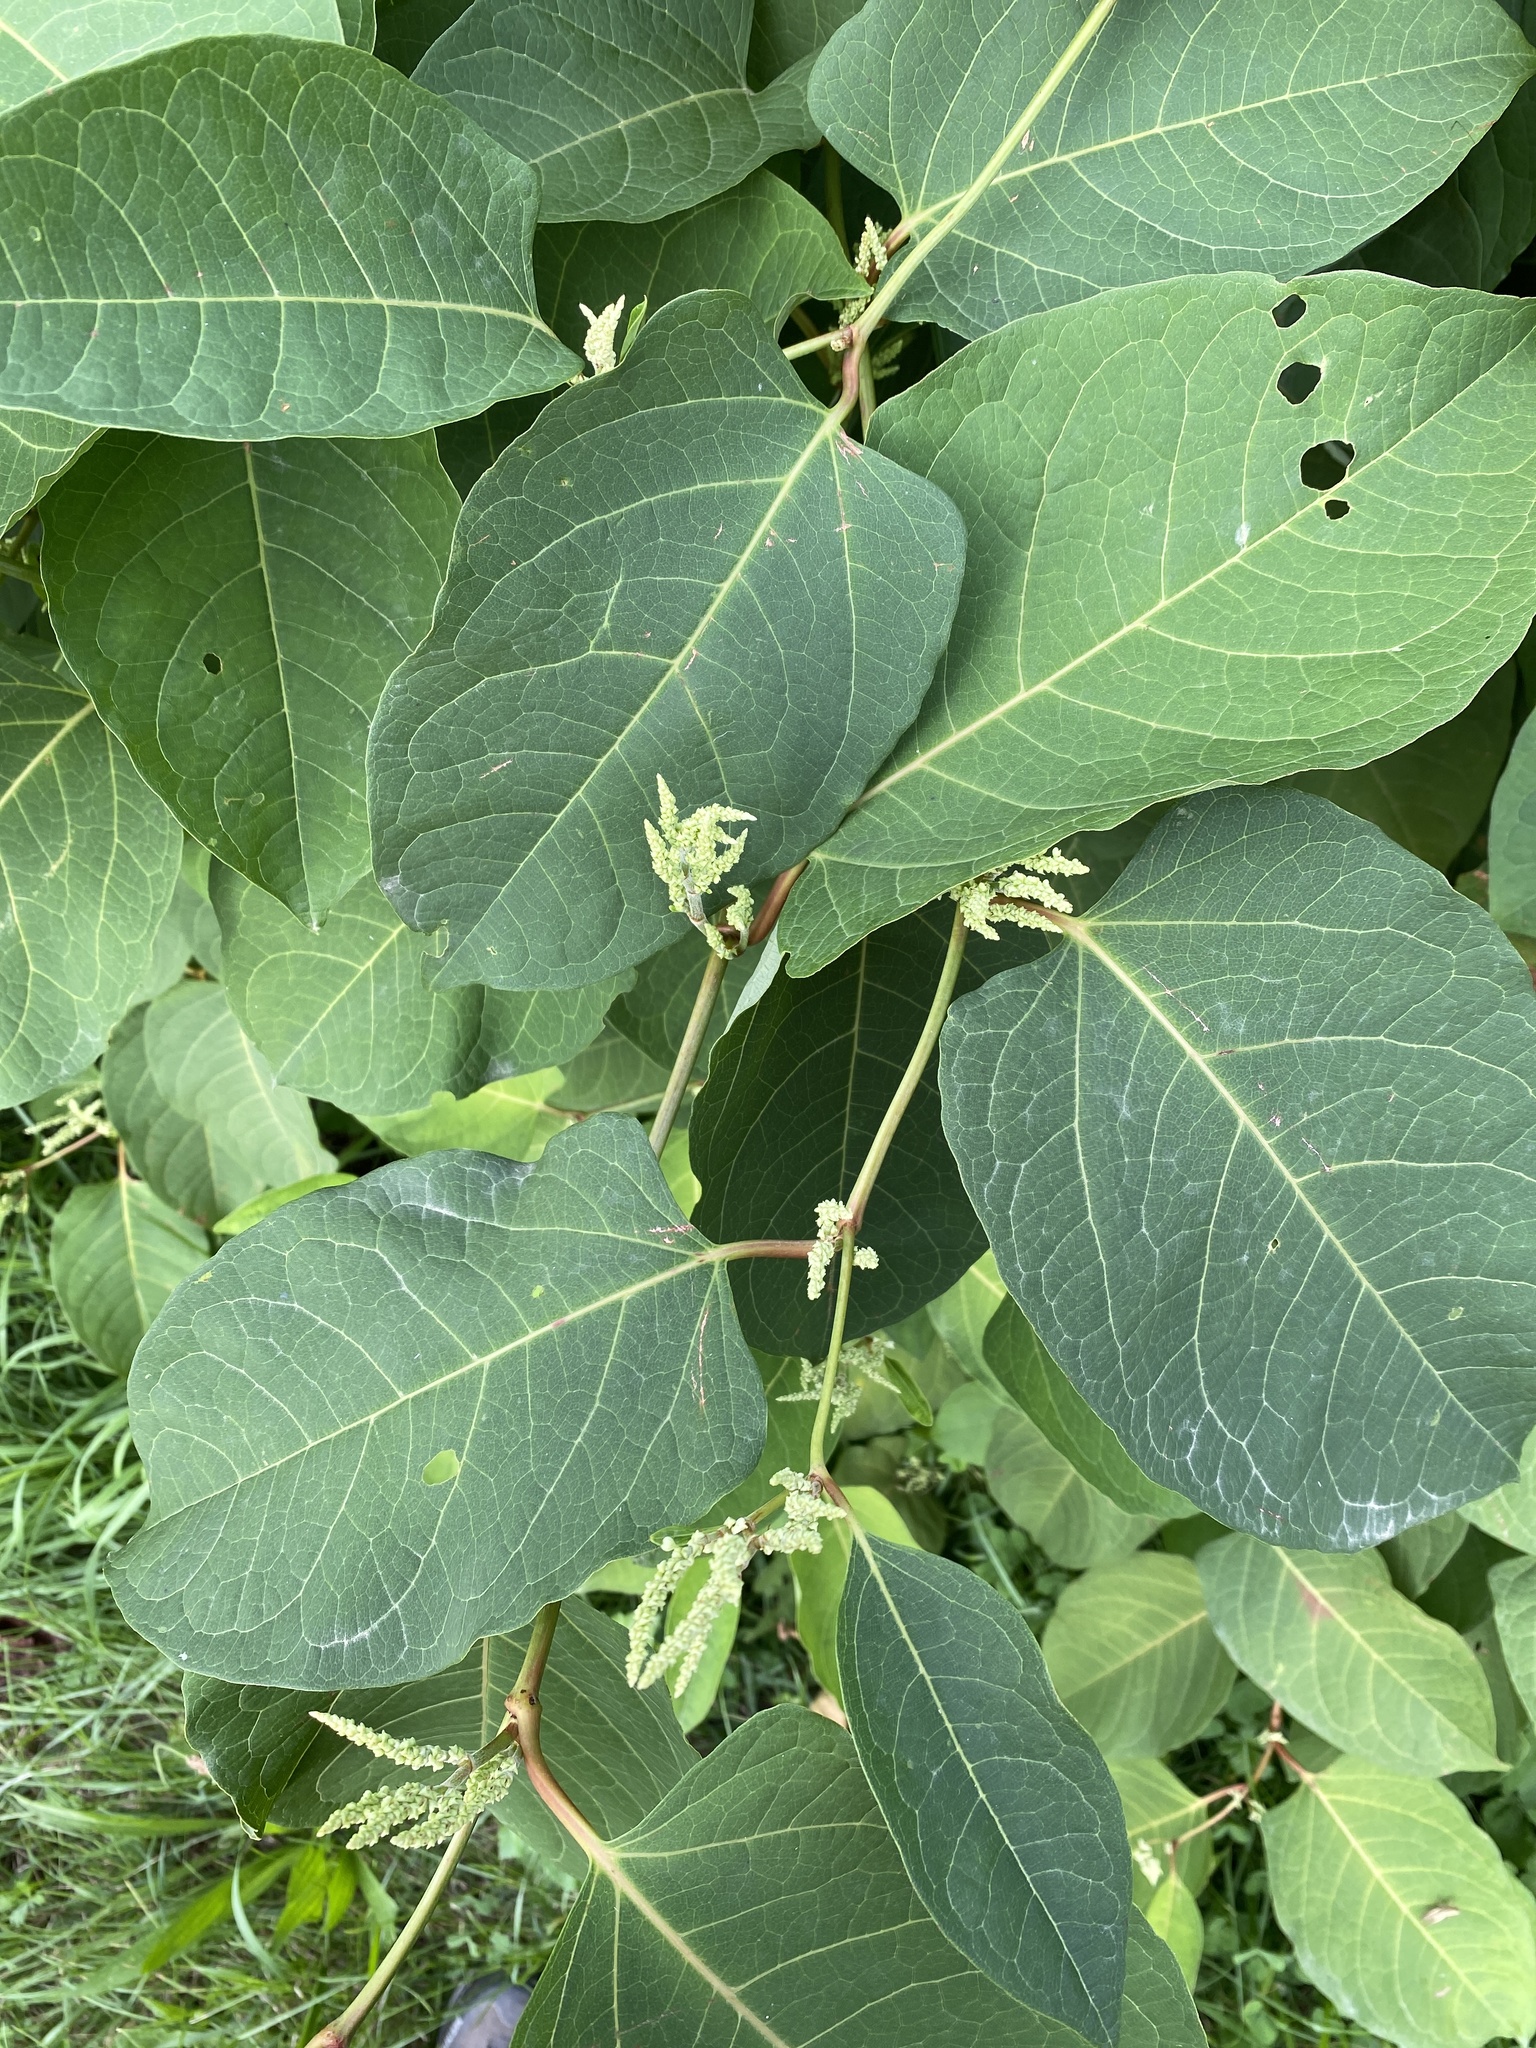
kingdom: Plantae
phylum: Tracheophyta
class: Magnoliopsida
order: Caryophyllales
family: Polygonaceae
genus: Reynoutria
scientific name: Reynoutria bohemica
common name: Bohemian knotweed
